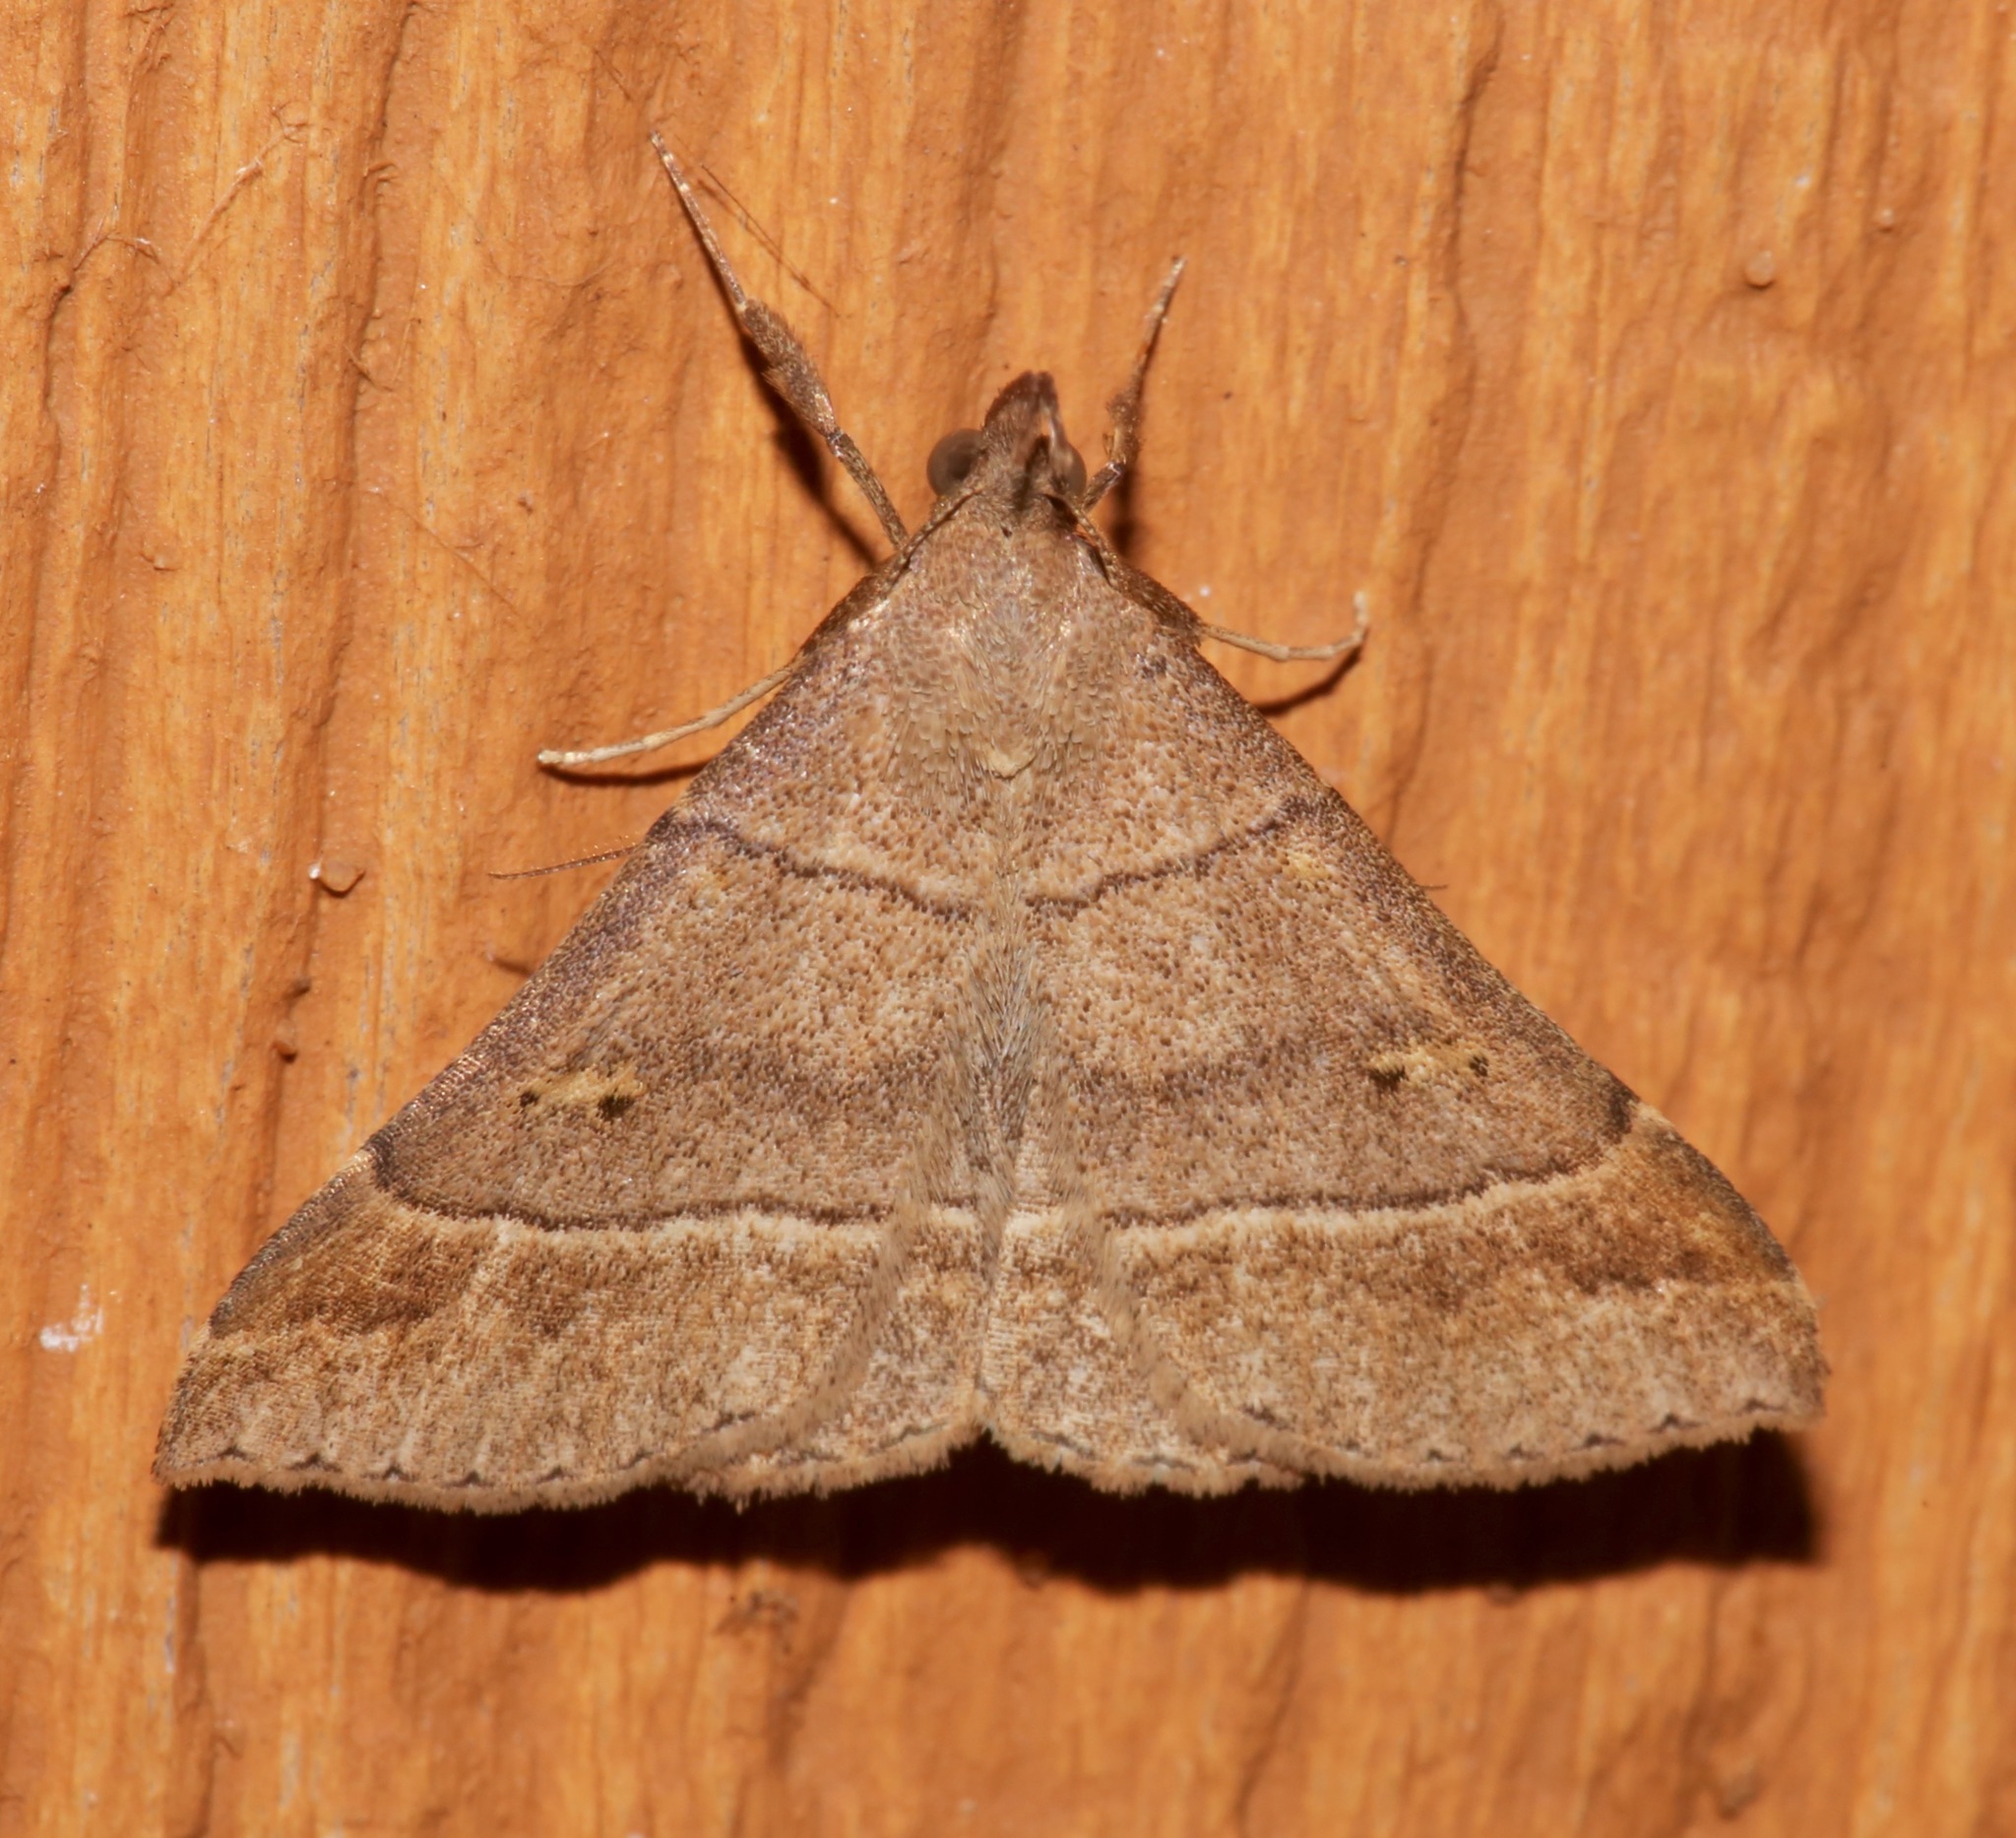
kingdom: Animalia
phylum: Arthropoda
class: Insecta
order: Lepidoptera
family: Erebidae
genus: Renia
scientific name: Renia flavipunctalis
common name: Yellow-spotted renia moth
